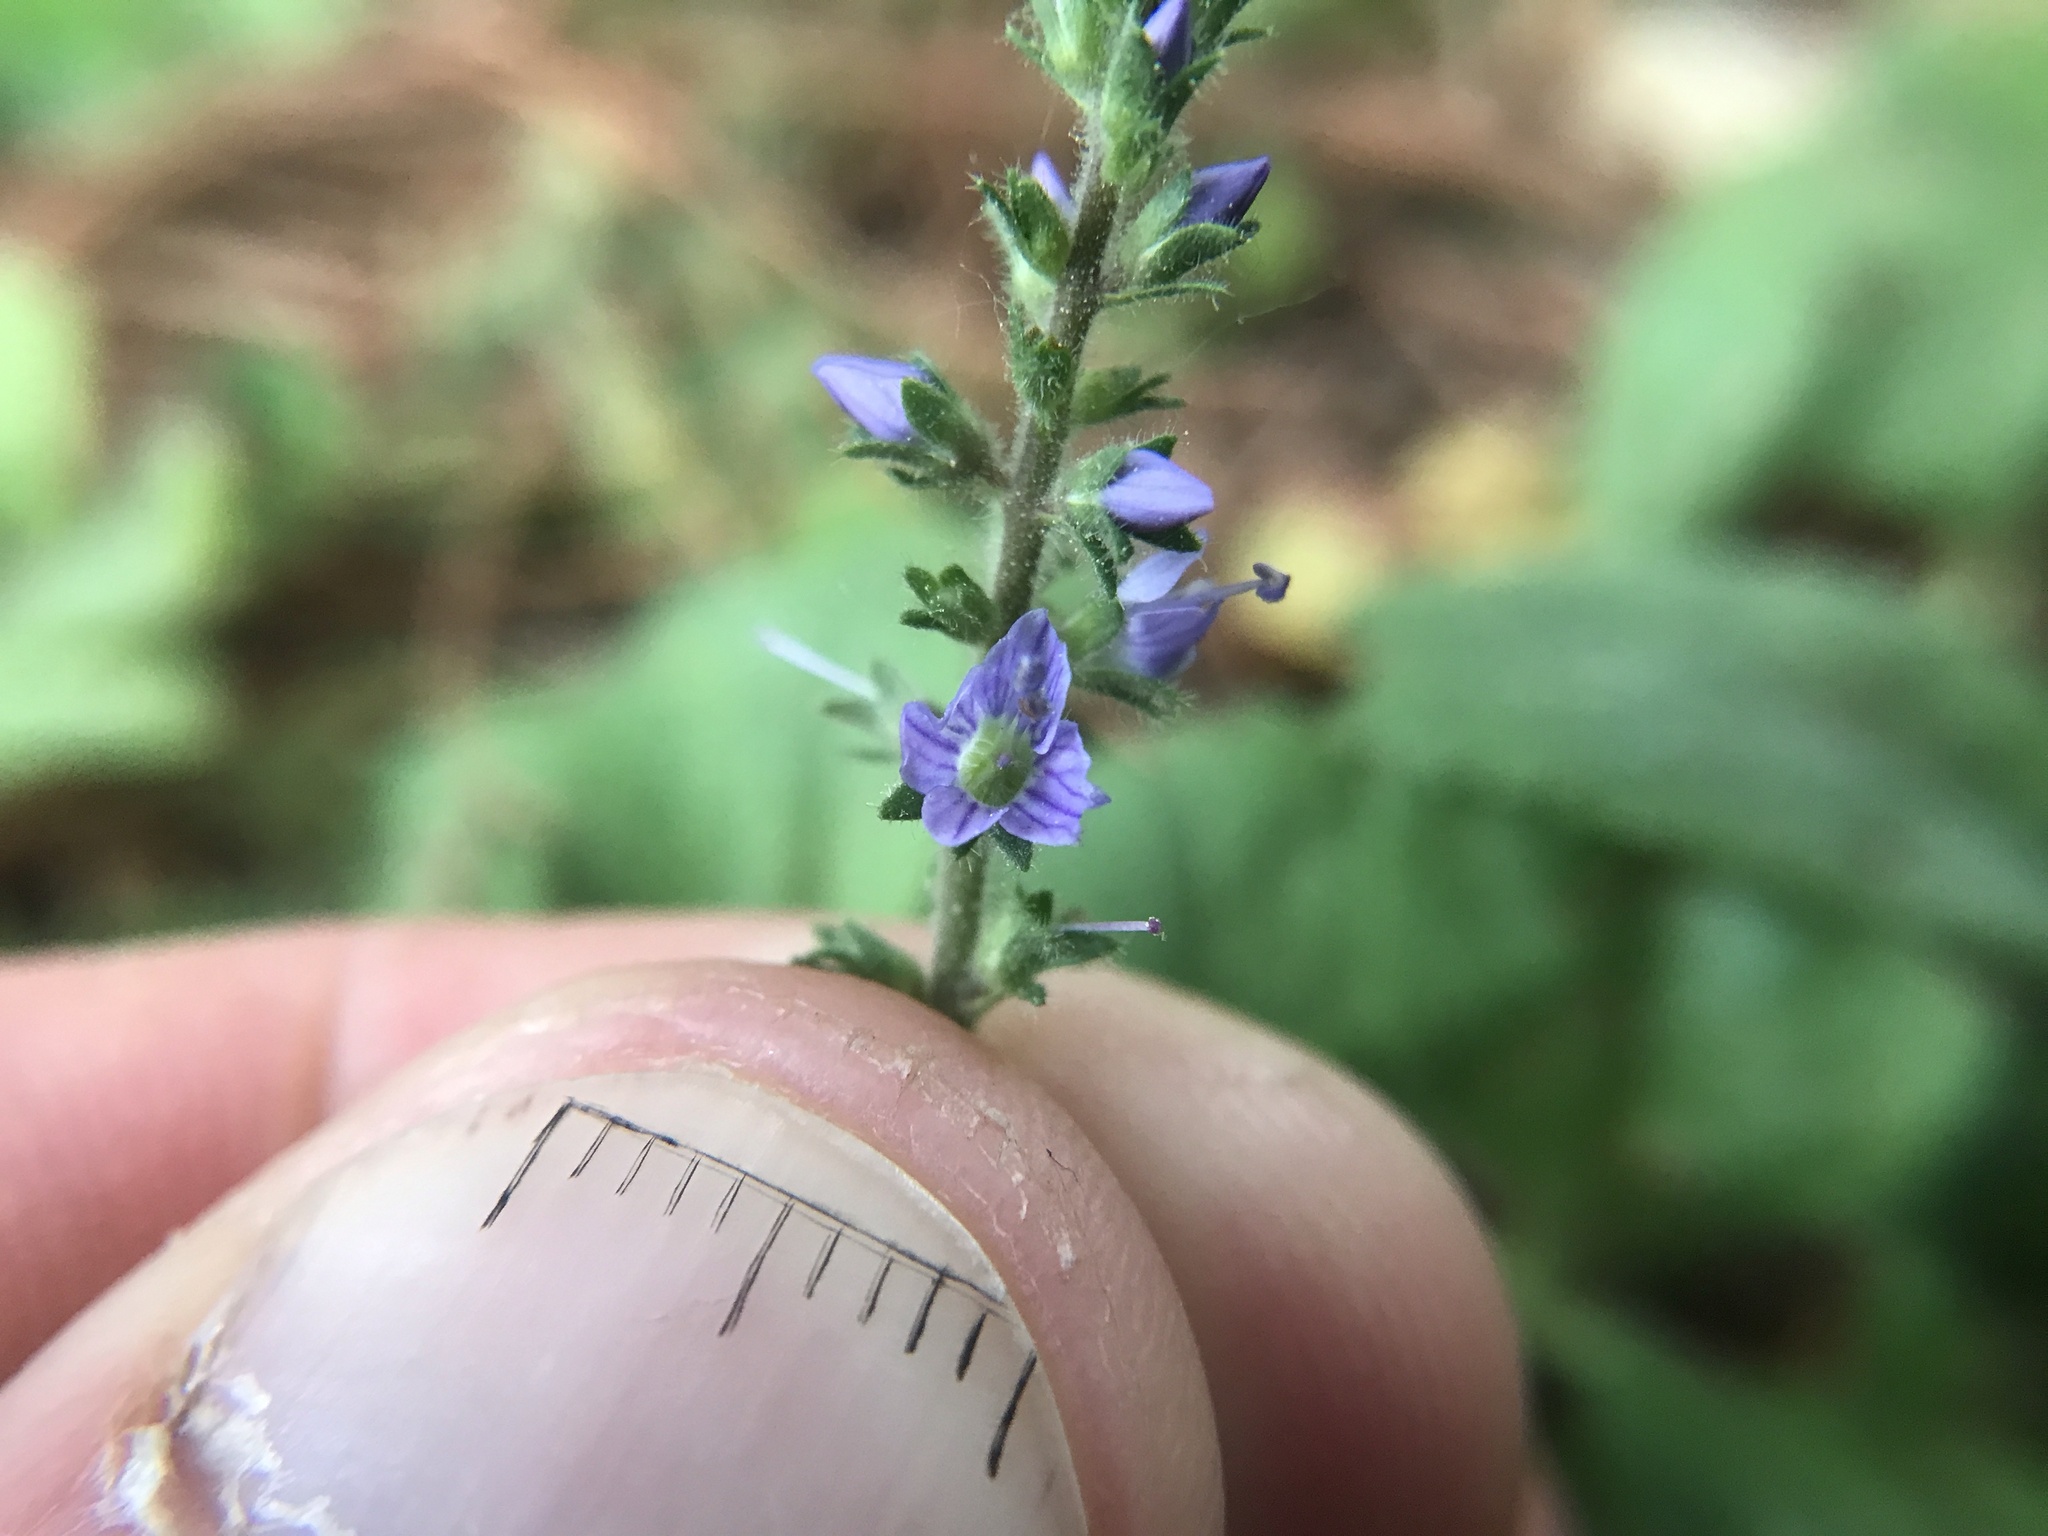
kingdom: Plantae
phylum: Tracheophyta
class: Magnoliopsida
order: Lamiales
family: Plantaginaceae
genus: Veronica
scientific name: Veronica officinalis
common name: Common speedwell
